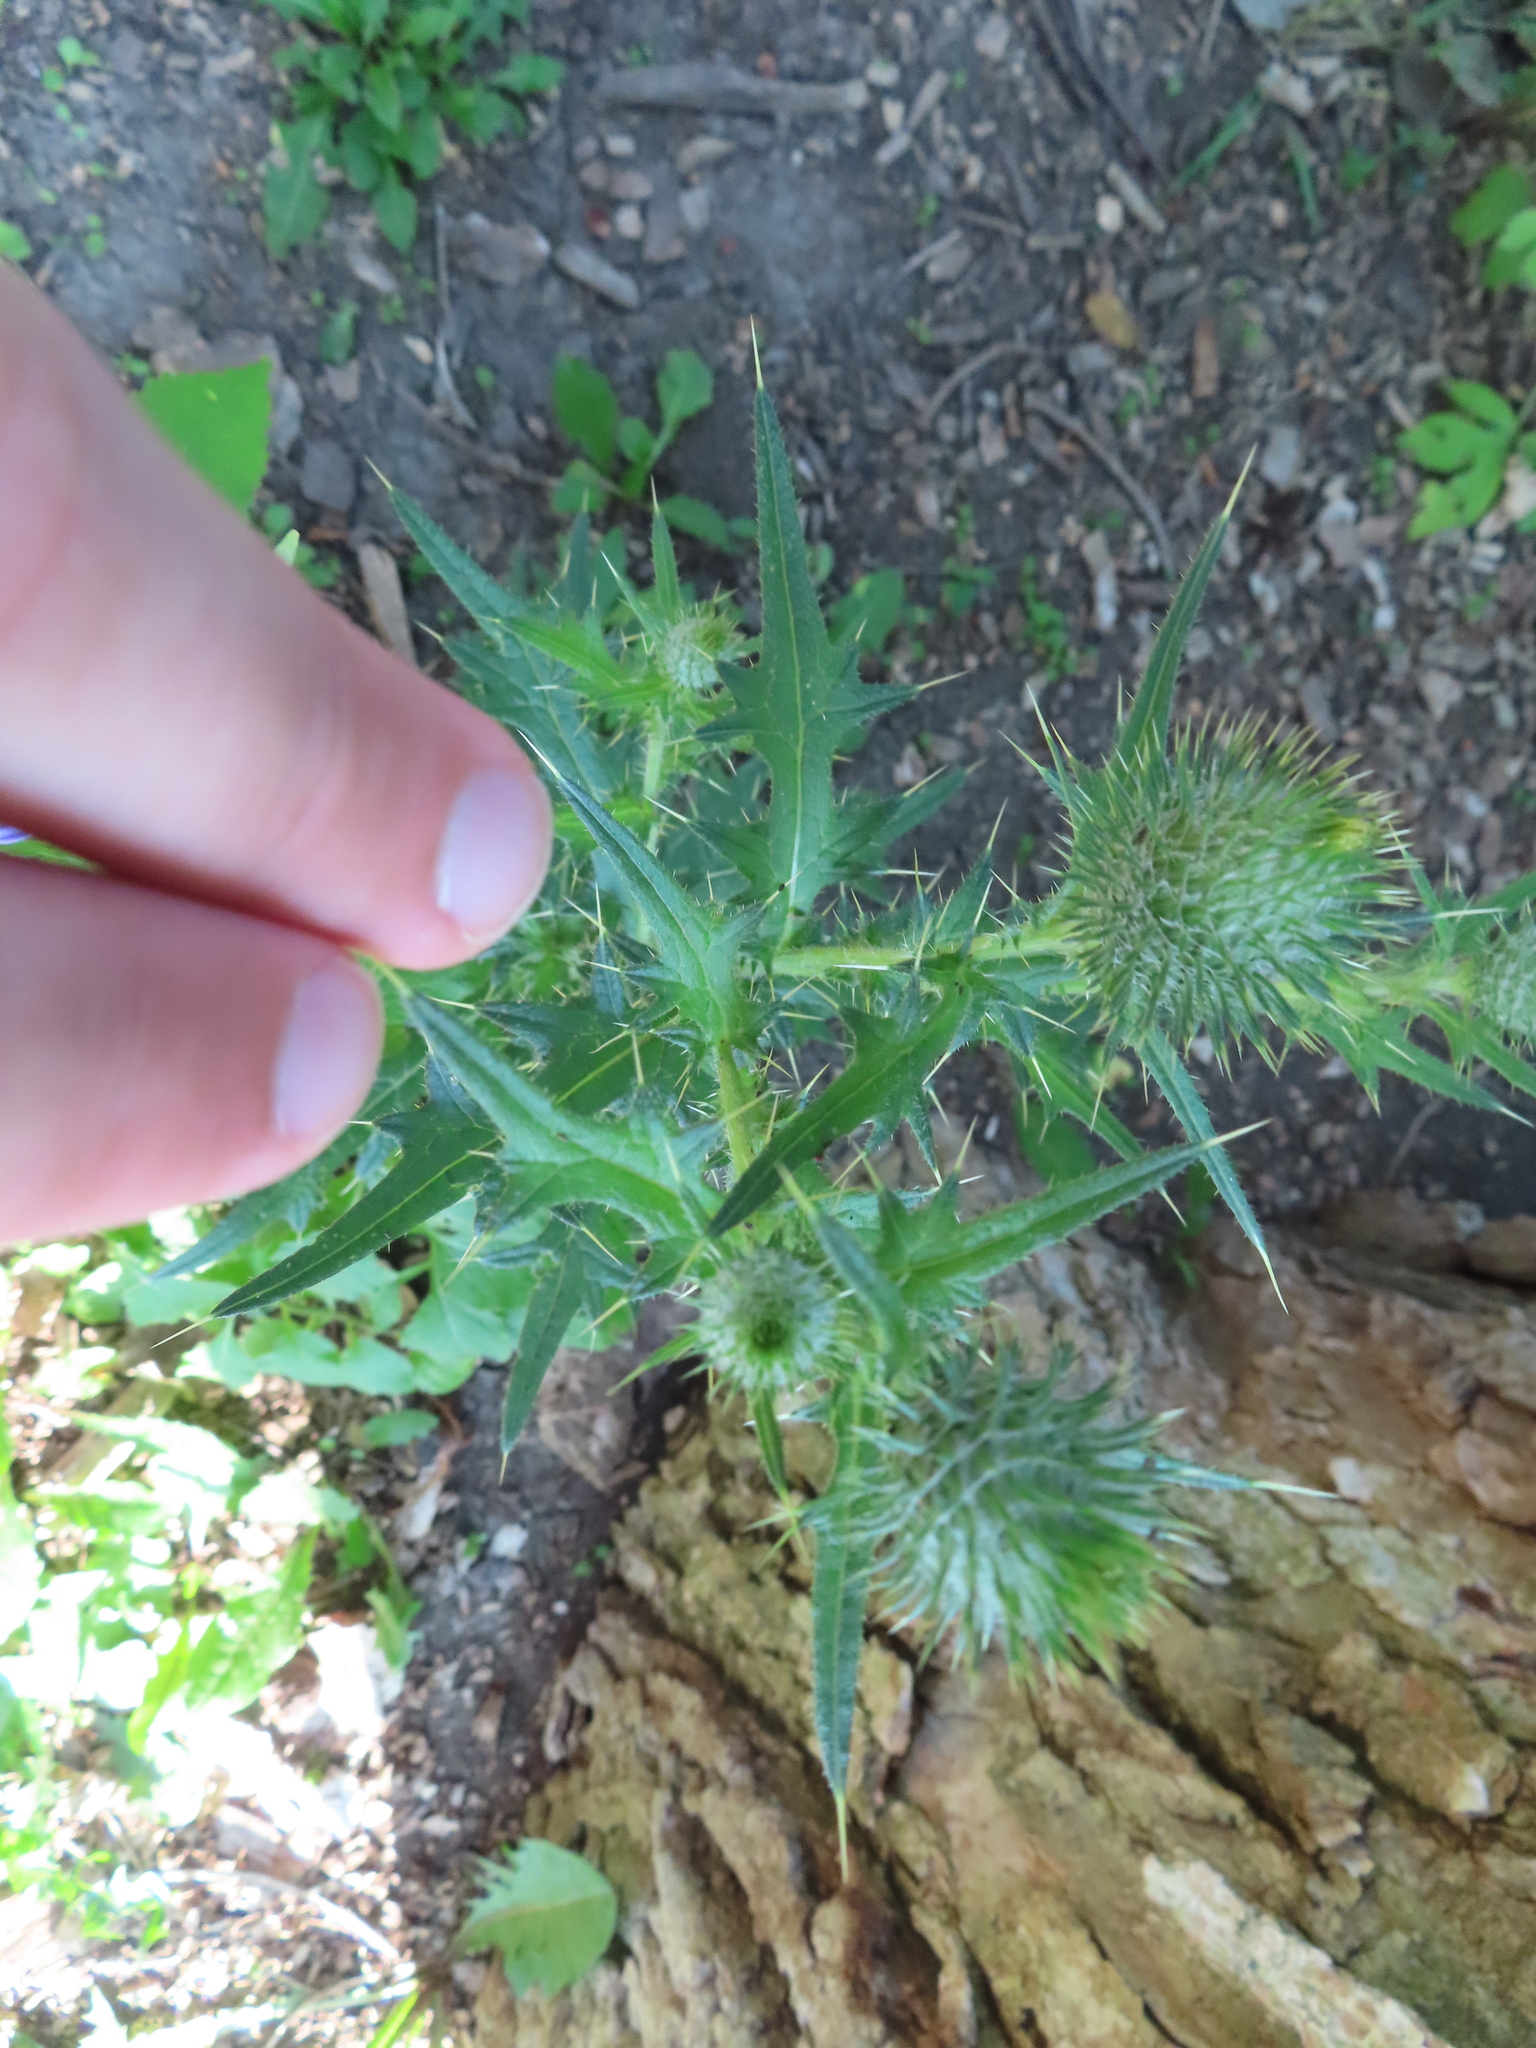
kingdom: Plantae
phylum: Tracheophyta
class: Magnoliopsida
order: Asterales
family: Asteraceae
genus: Cirsium
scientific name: Cirsium vulgare
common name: Bull thistle
